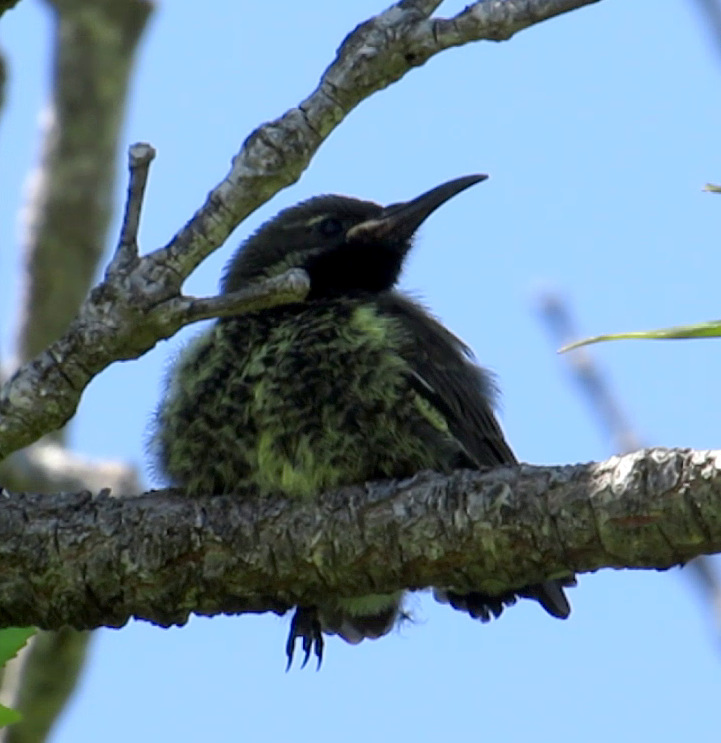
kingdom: Animalia
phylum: Chordata
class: Aves
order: Passeriformes
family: Nectariniidae
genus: Chalcomitra
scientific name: Chalcomitra amethystina
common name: Amethyst sunbird
